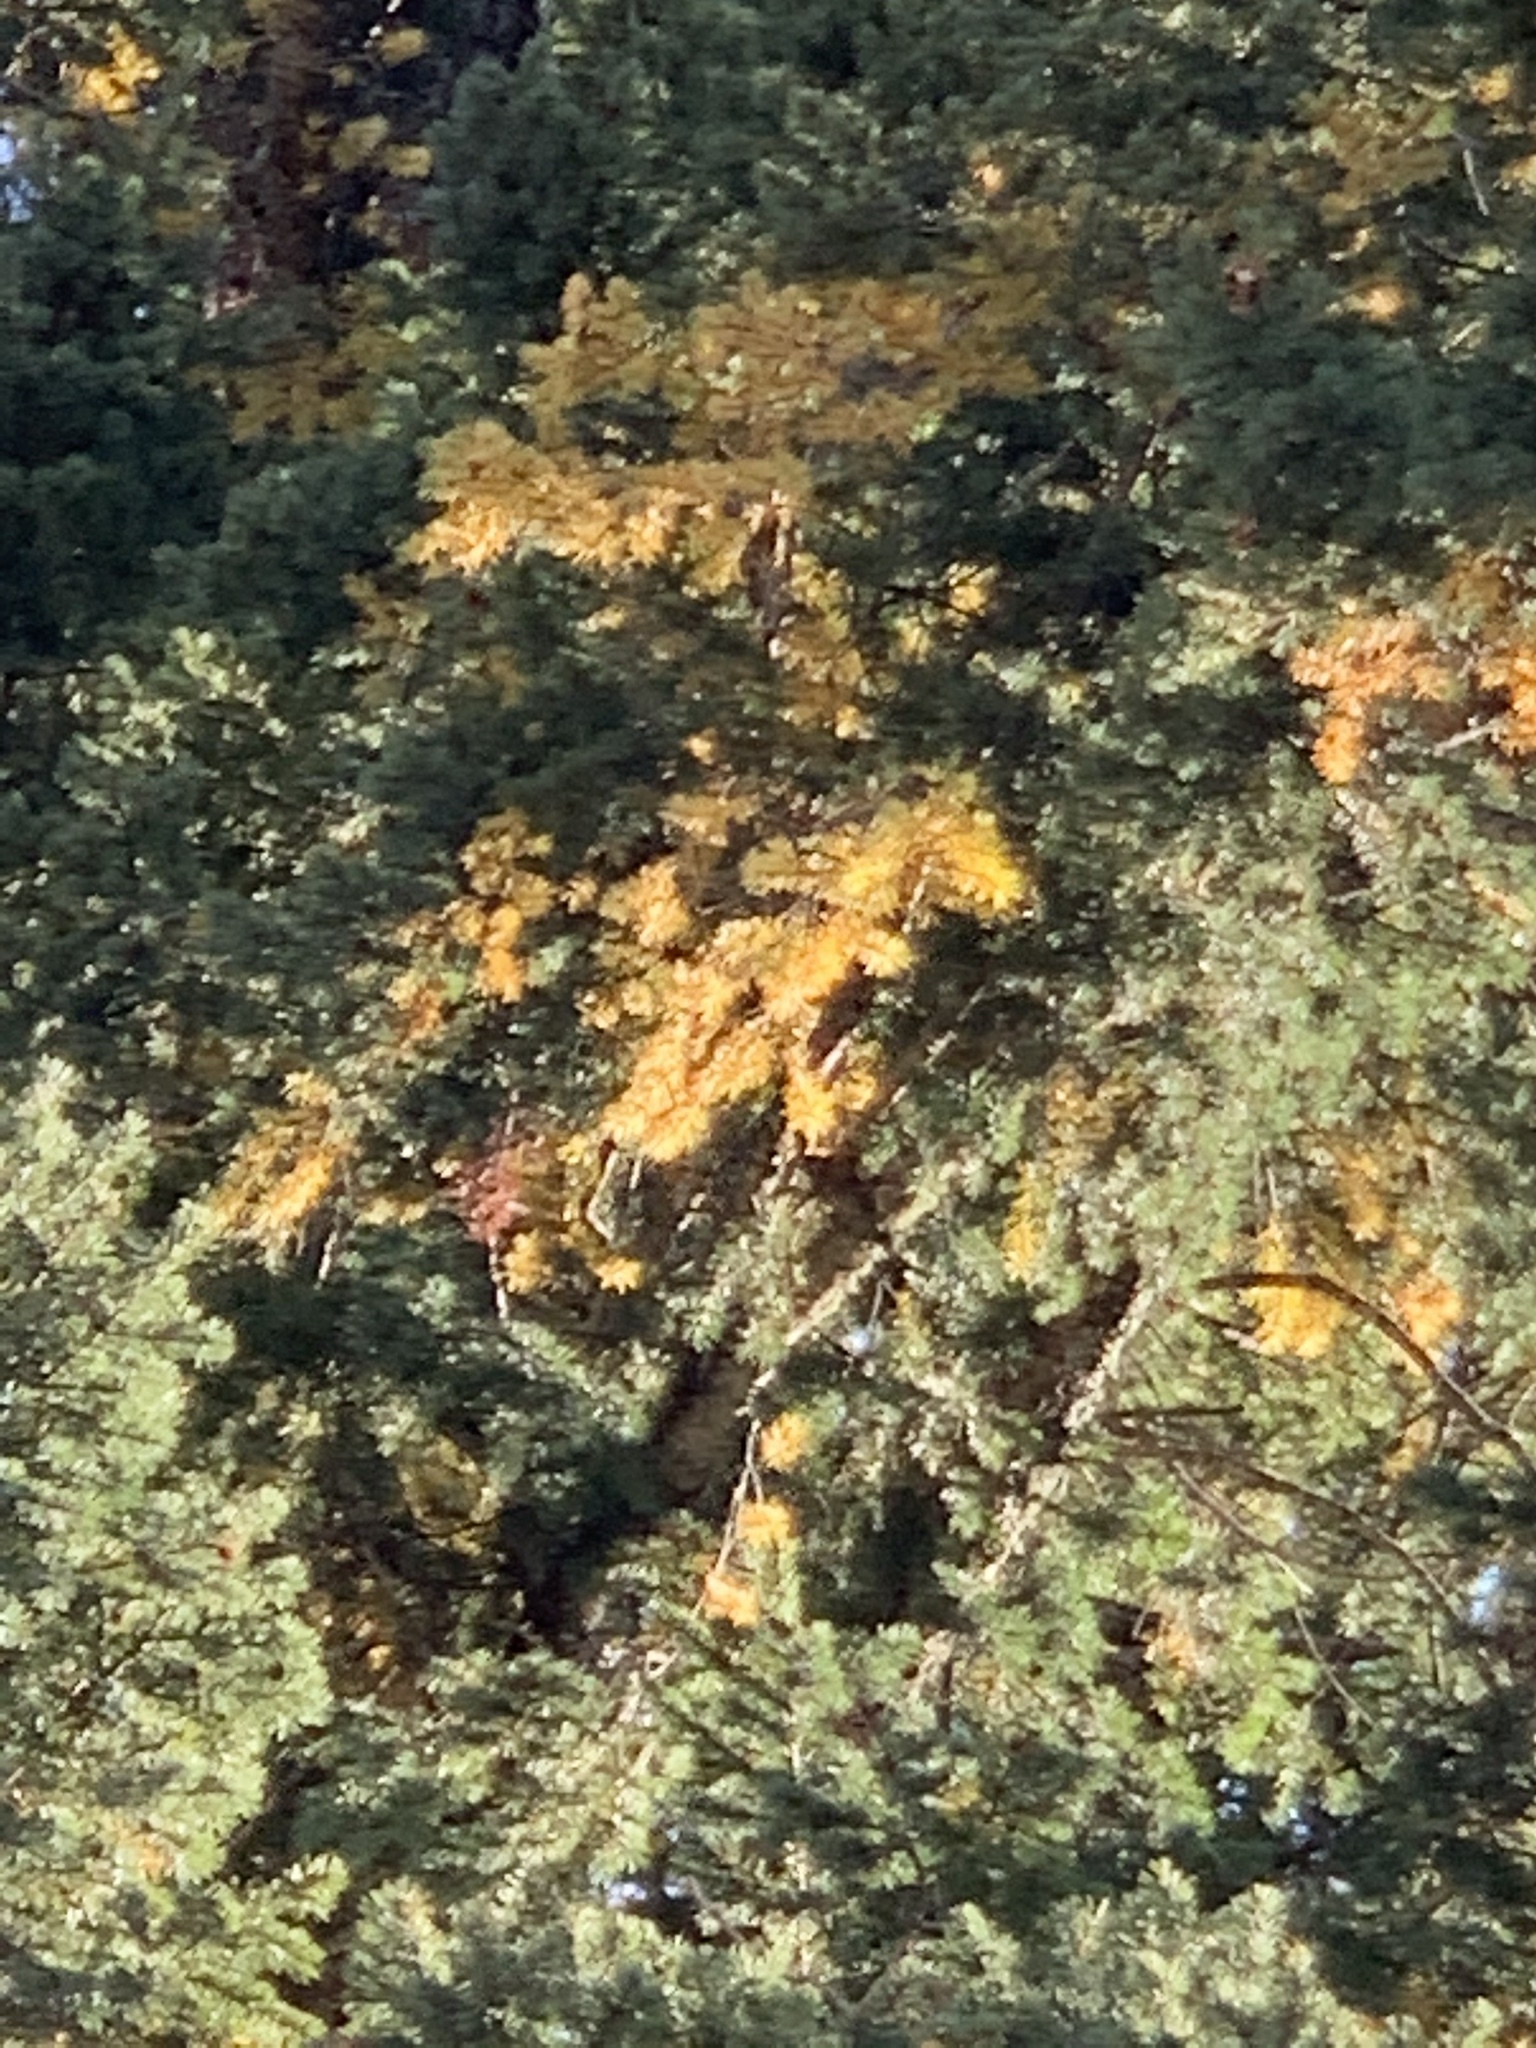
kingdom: Plantae
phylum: Tracheophyta
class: Pinopsida
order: Pinales
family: Pinaceae
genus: Pseudotsuga
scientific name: Pseudotsuga menziesii
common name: Douglas fir
